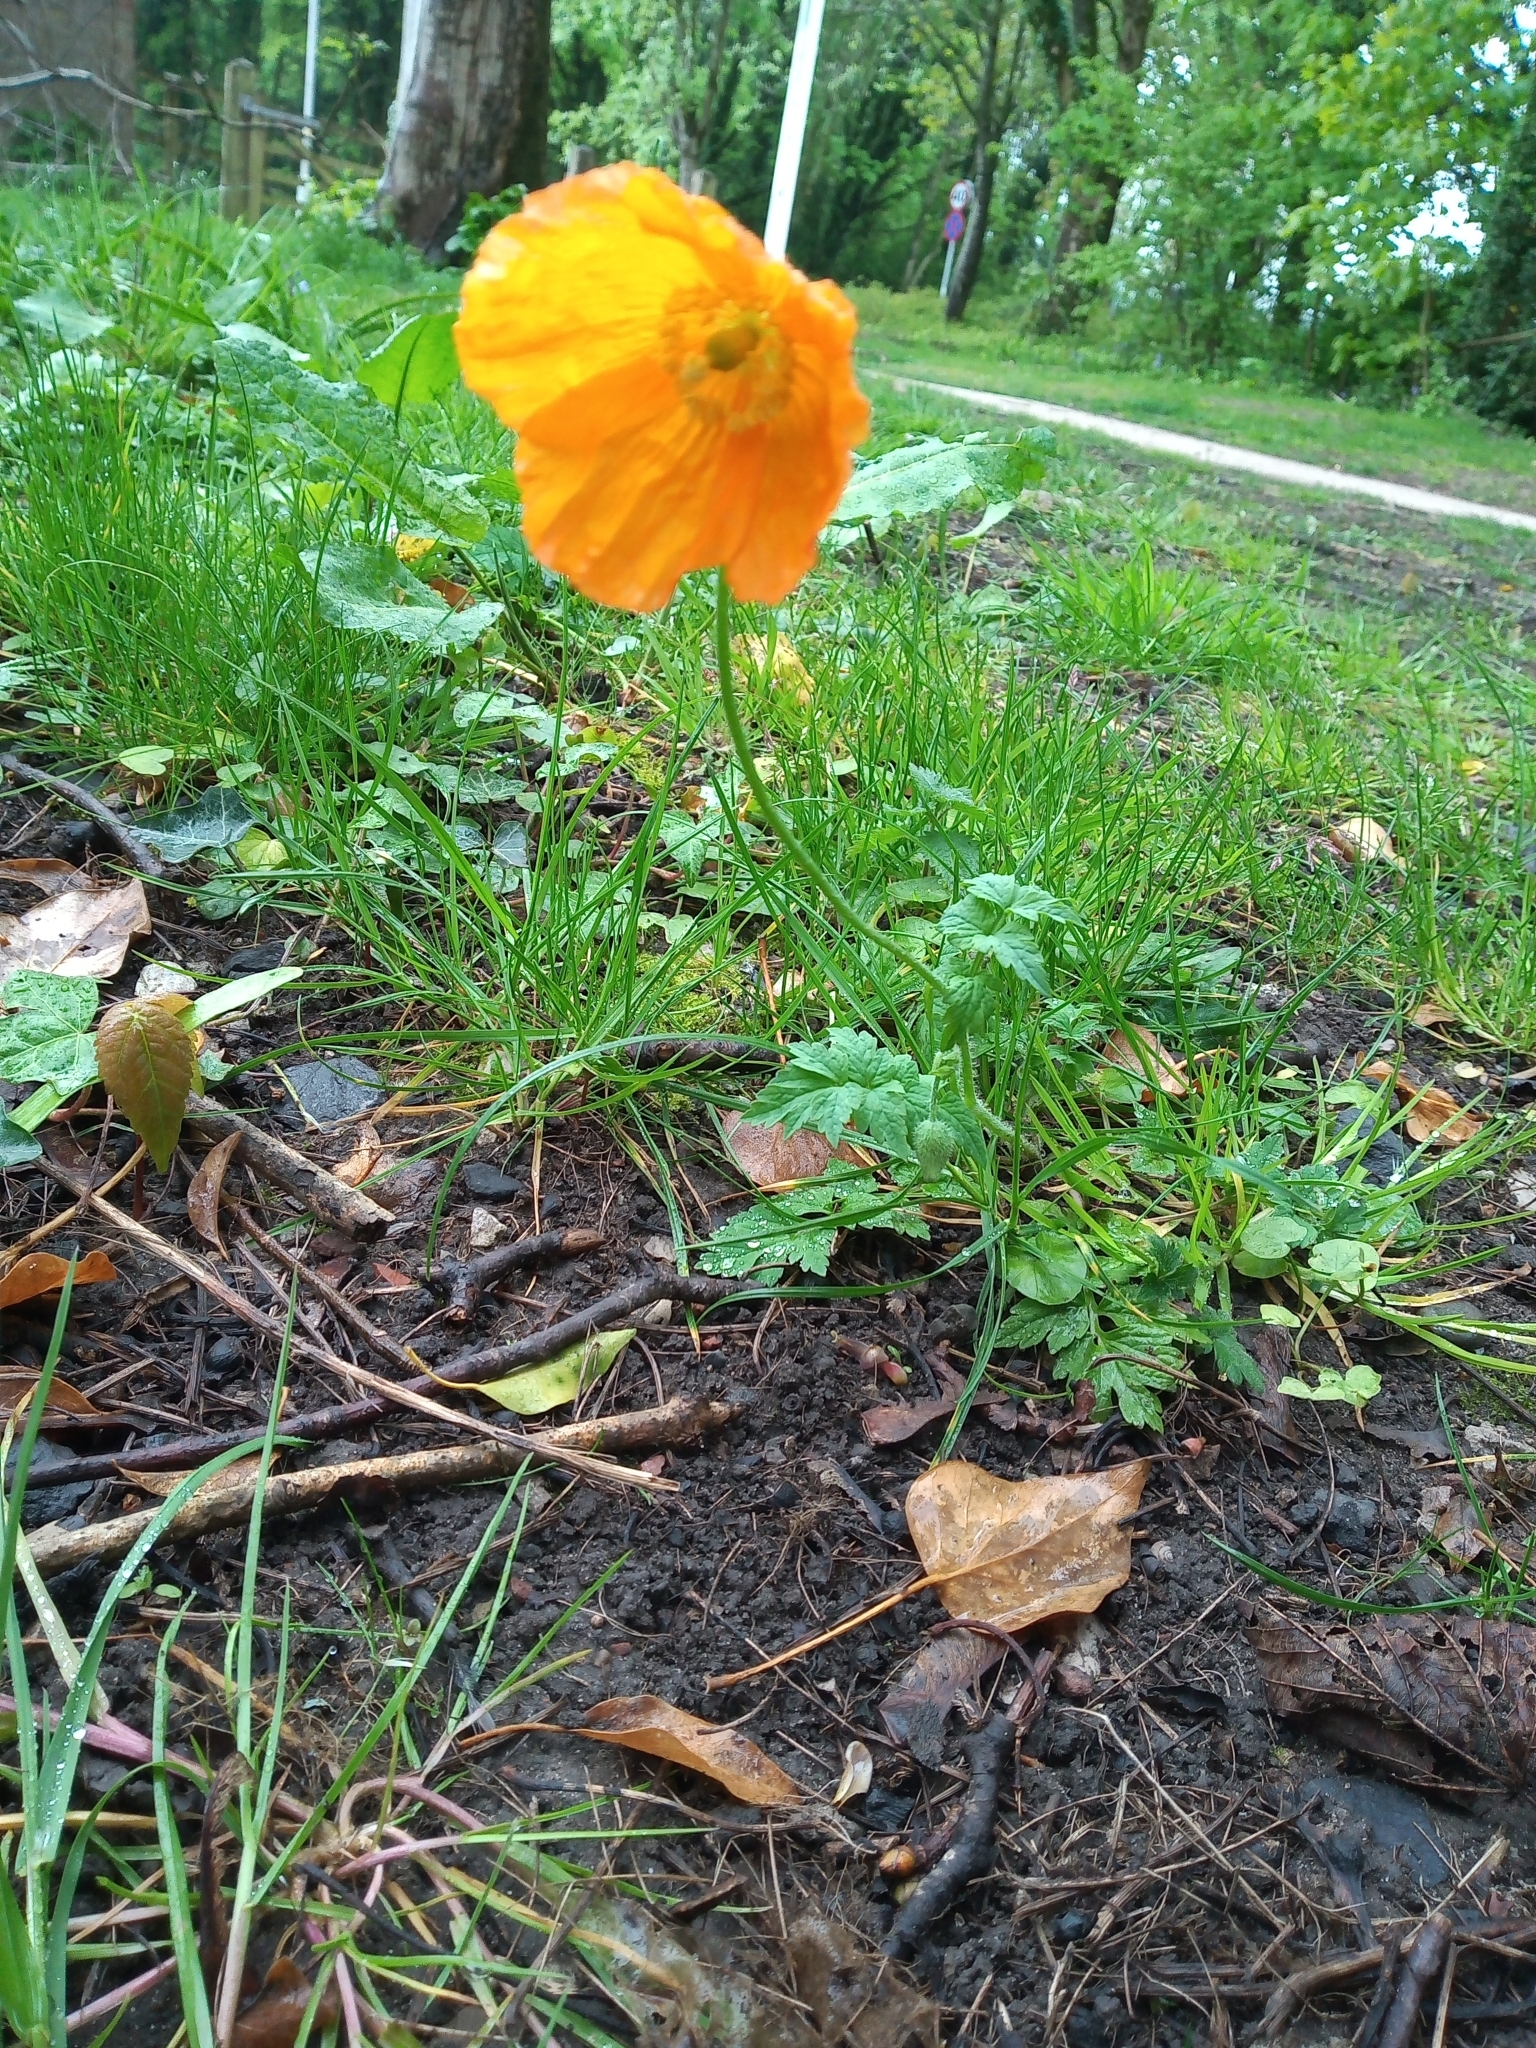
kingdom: Plantae
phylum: Tracheophyta
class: Magnoliopsida
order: Ranunculales
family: Papaveraceae
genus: Papaver
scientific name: Papaver cambricum
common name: Poppy
